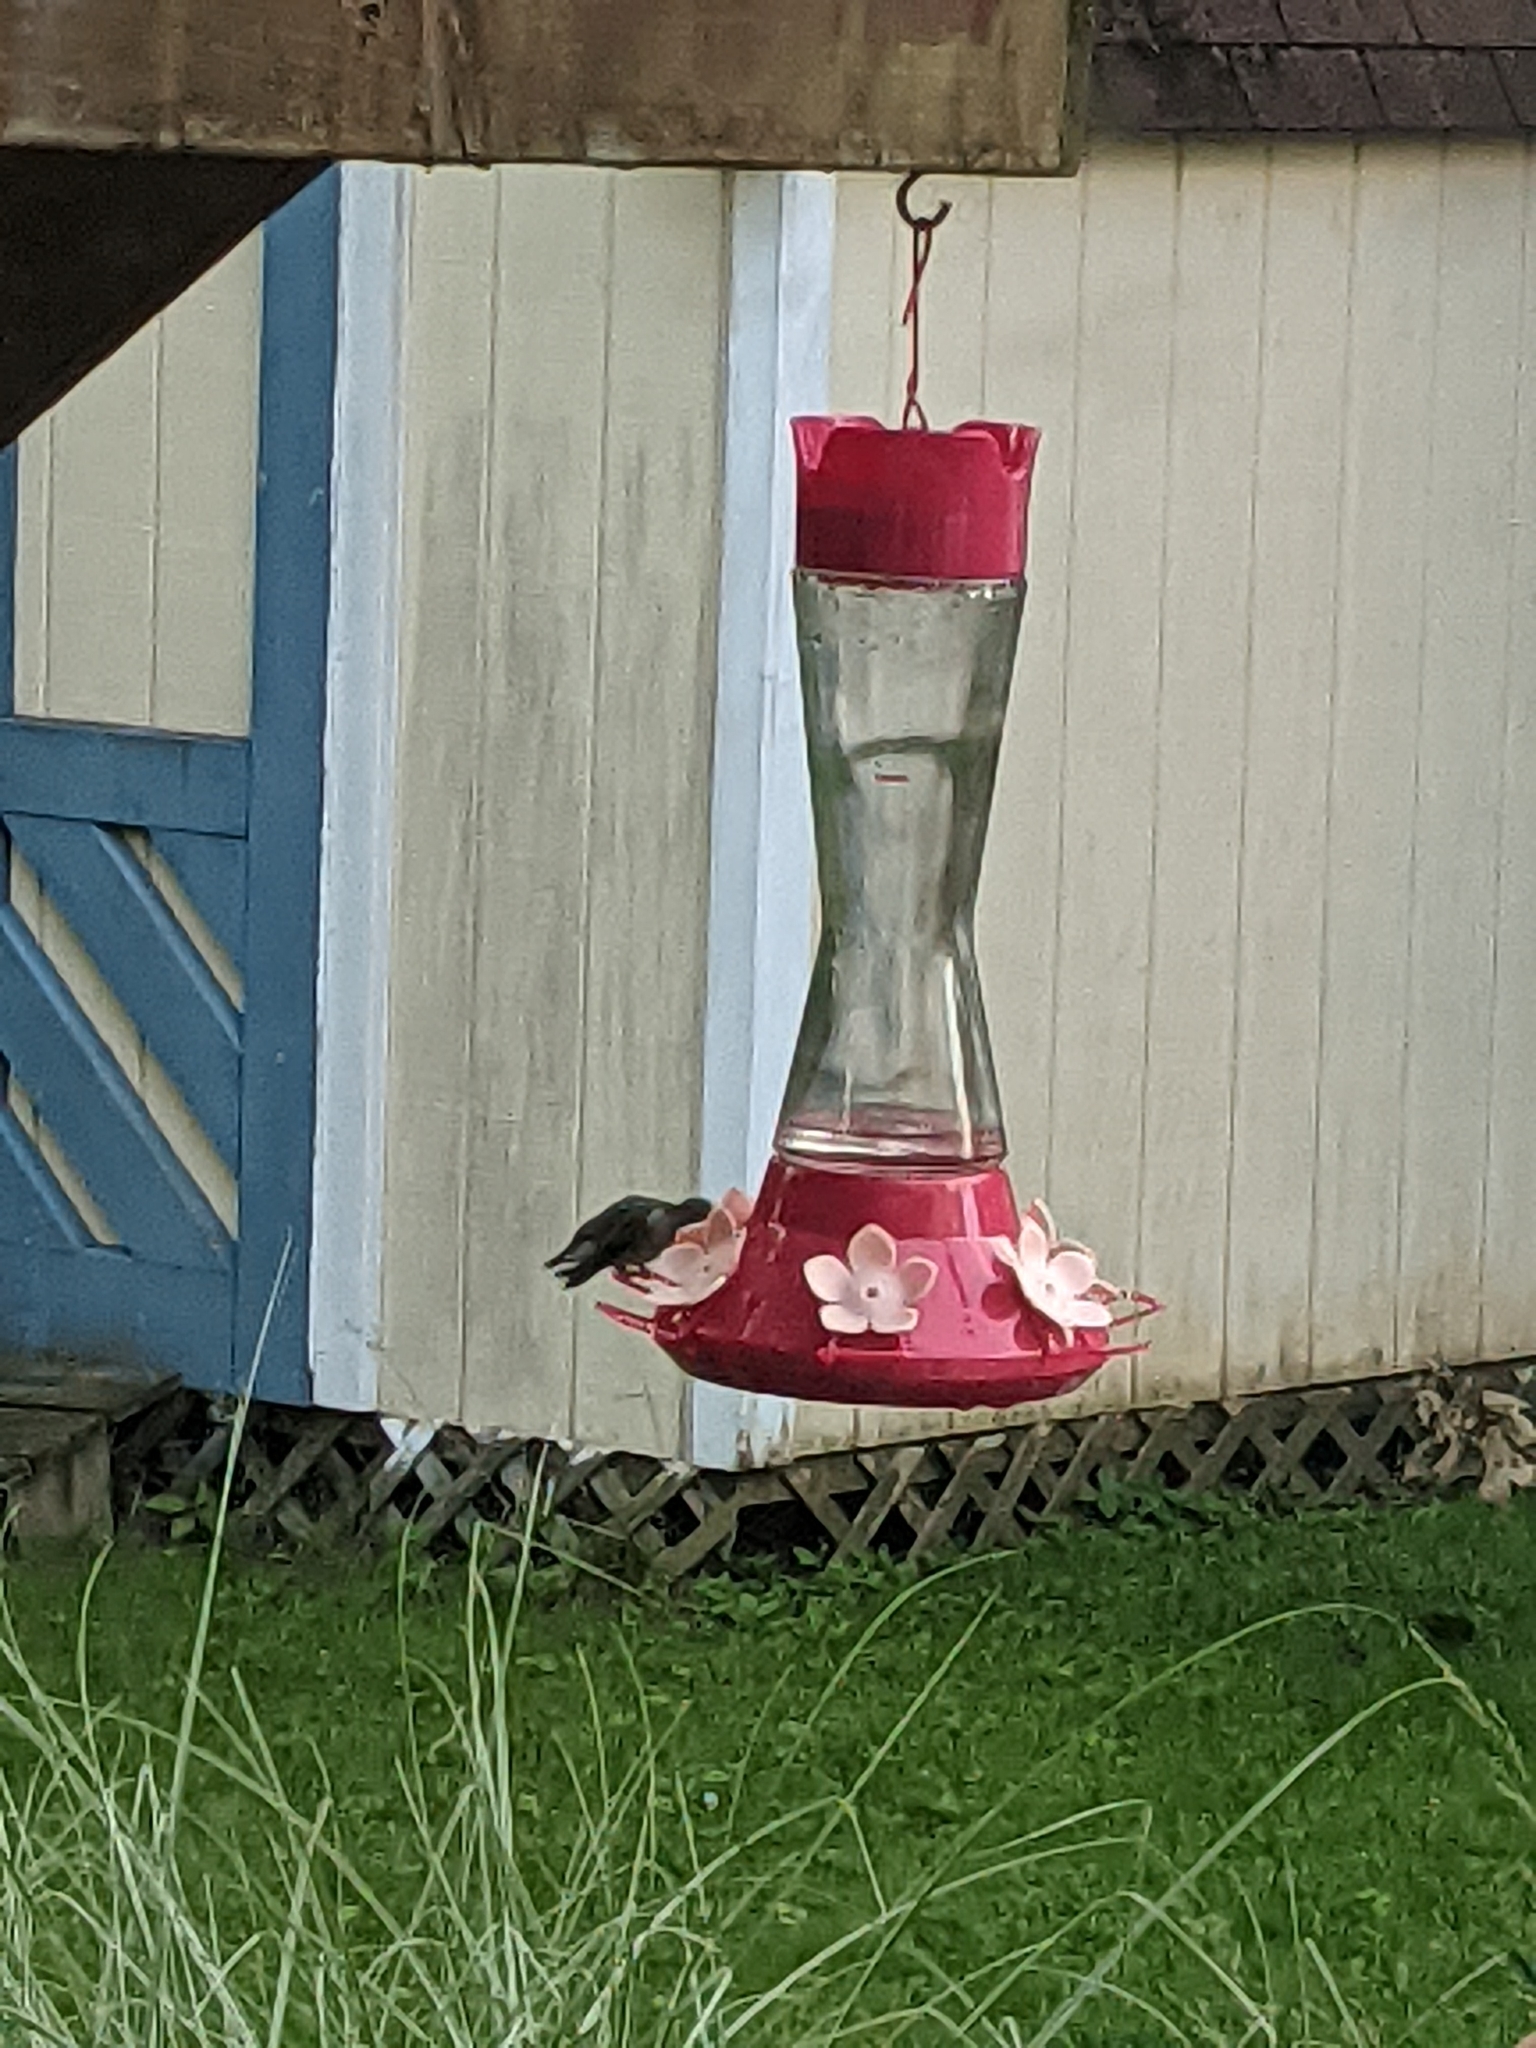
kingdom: Animalia
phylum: Chordata
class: Aves
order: Apodiformes
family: Trochilidae
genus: Archilochus
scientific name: Archilochus colubris
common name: Ruby-throated hummingbird
